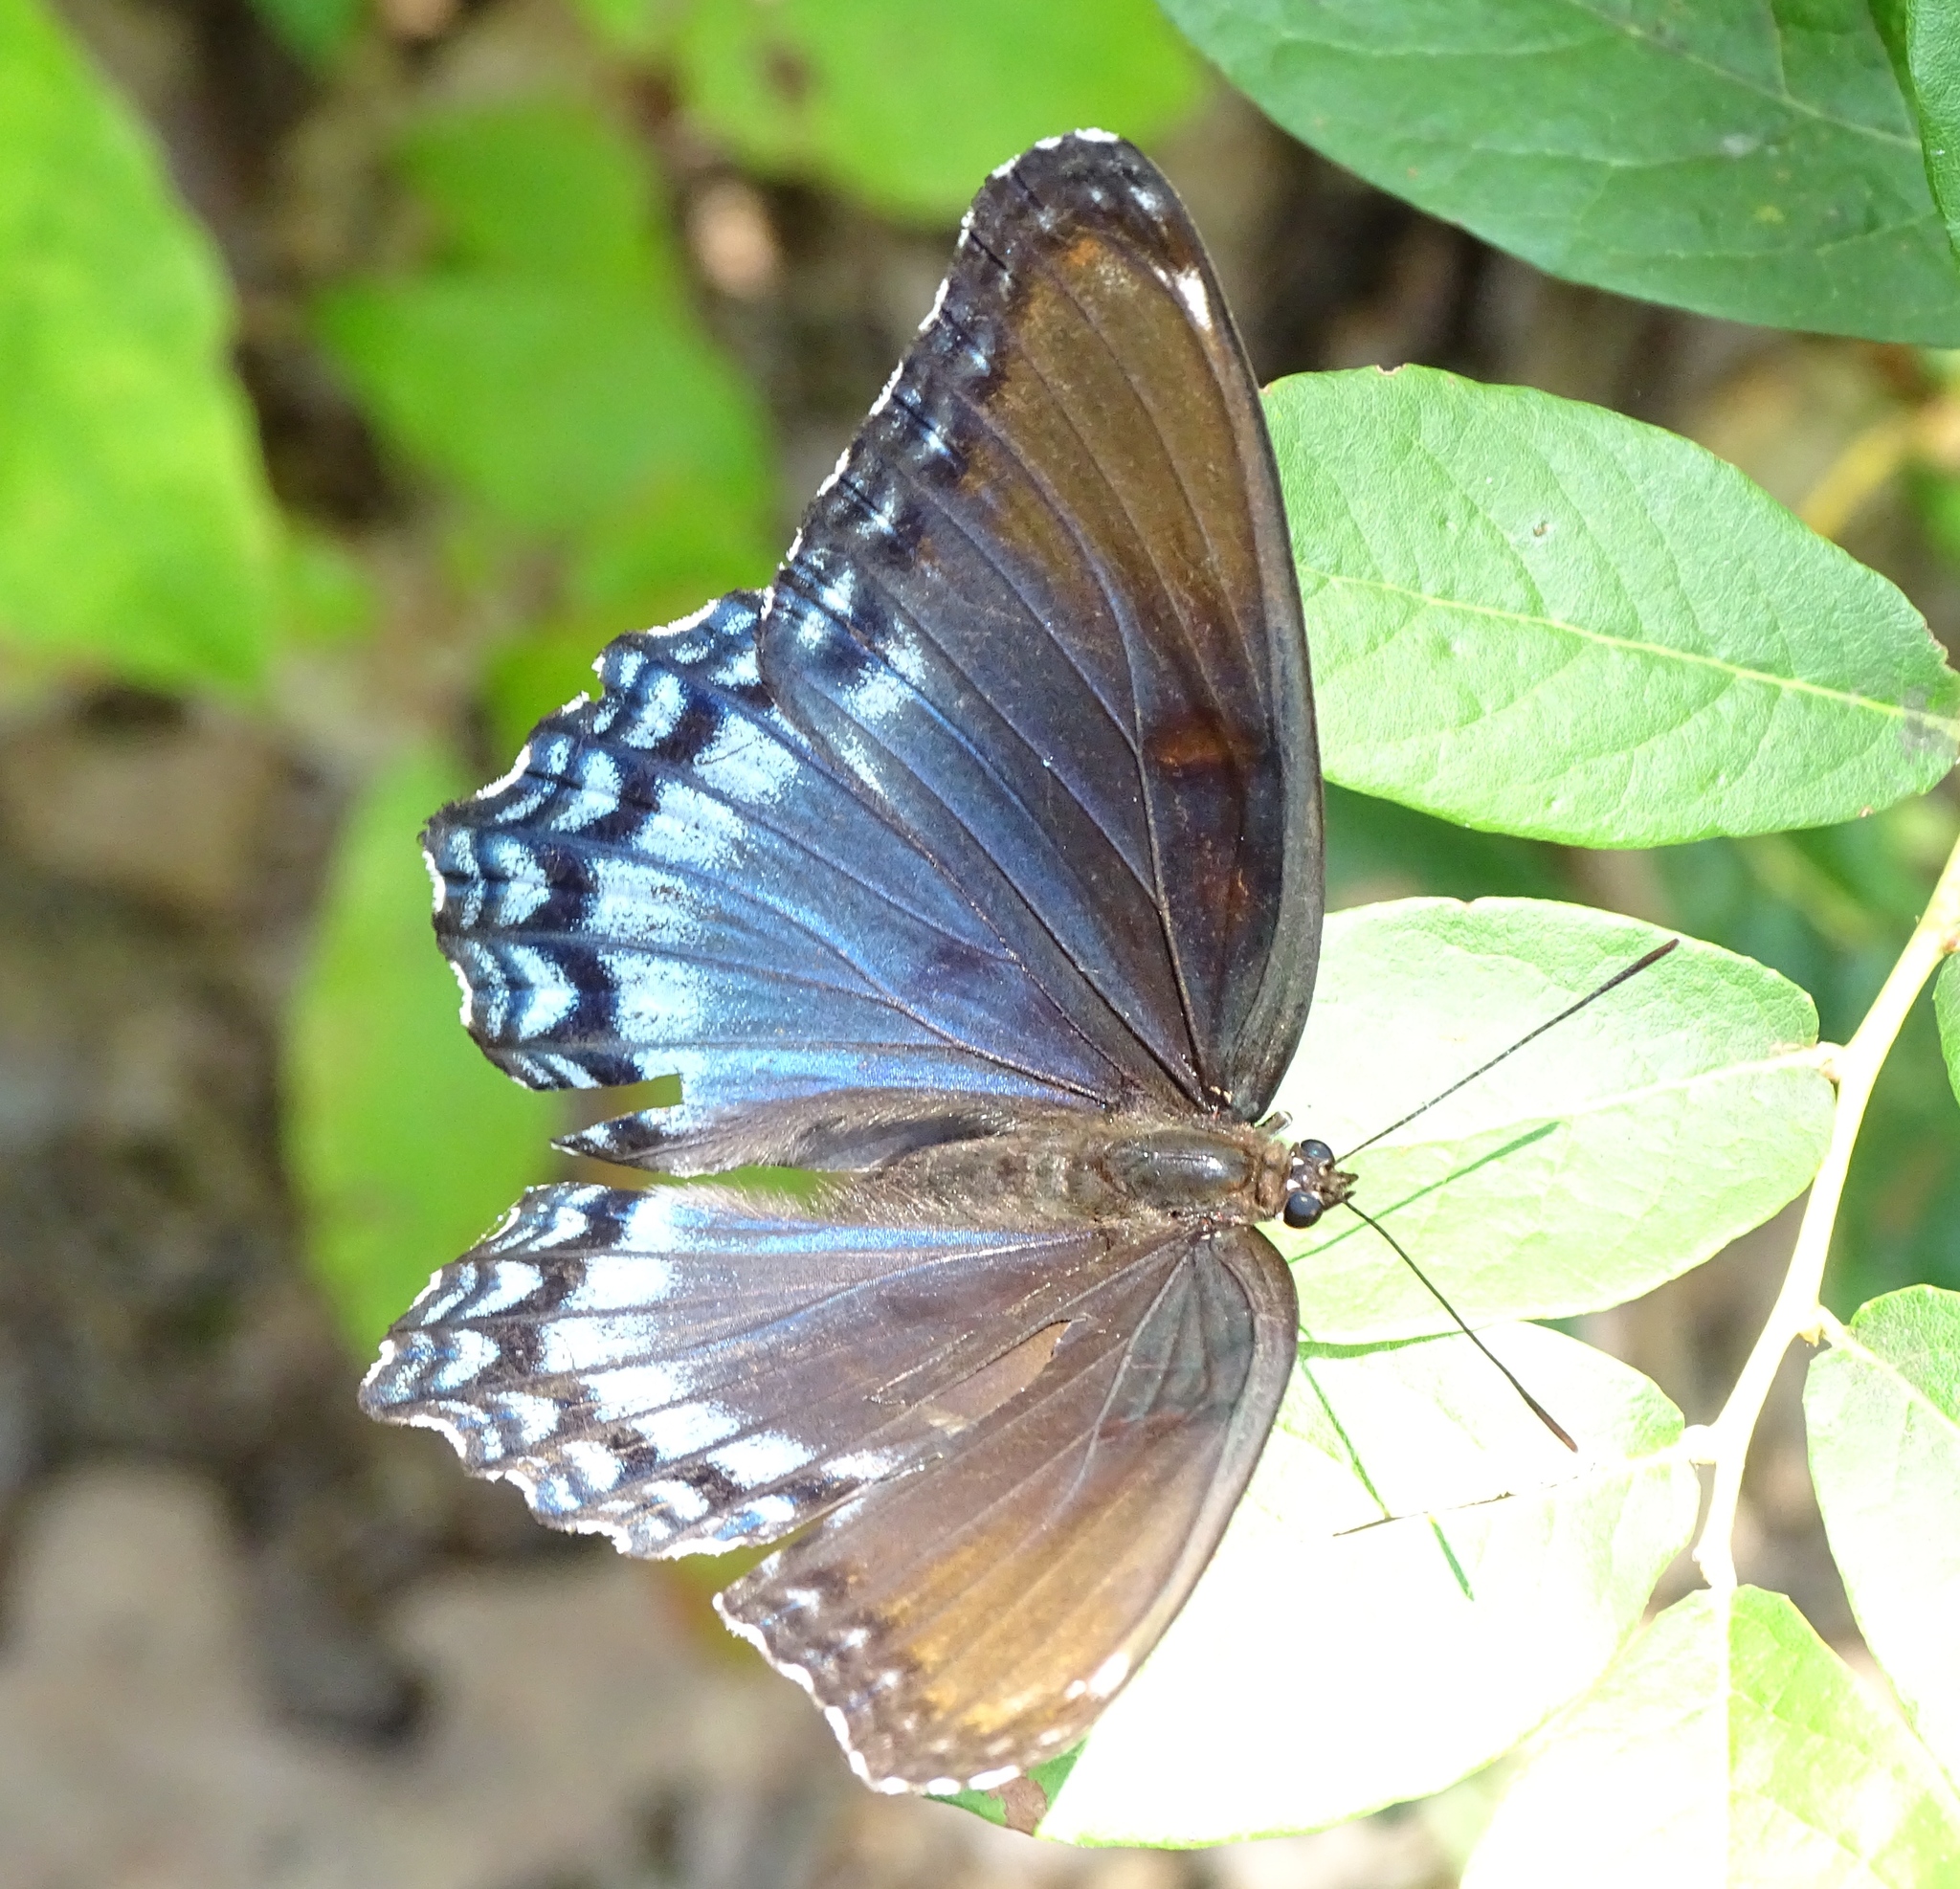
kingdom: Animalia
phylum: Arthropoda
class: Insecta
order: Lepidoptera
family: Nymphalidae
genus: Limenitis
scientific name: Limenitis arthemis
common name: Red-spotted admiral
